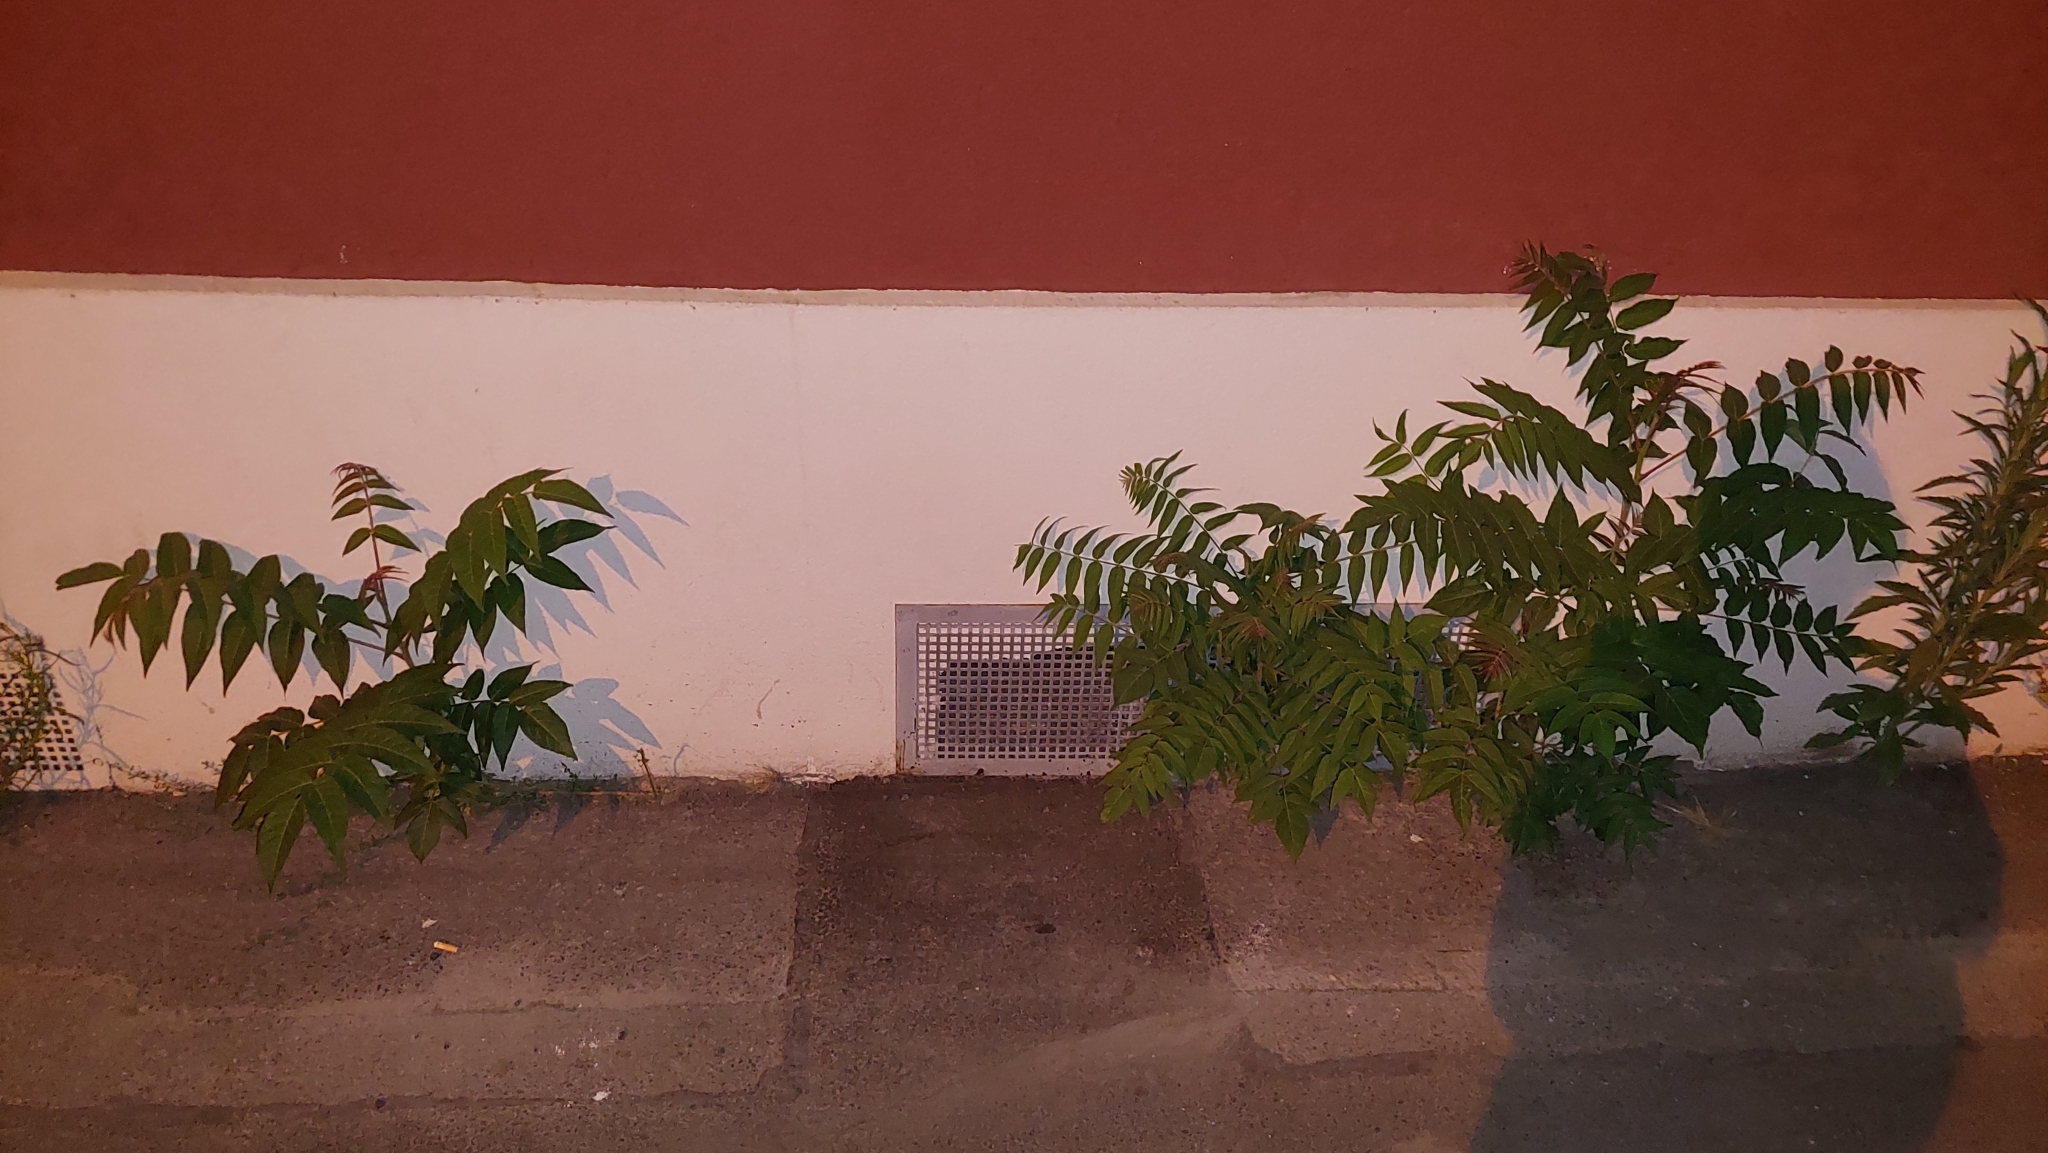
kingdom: Plantae
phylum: Tracheophyta
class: Magnoliopsida
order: Sapindales
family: Simaroubaceae
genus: Ailanthus
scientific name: Ailanthus altissima
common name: Tree-of-heaven
